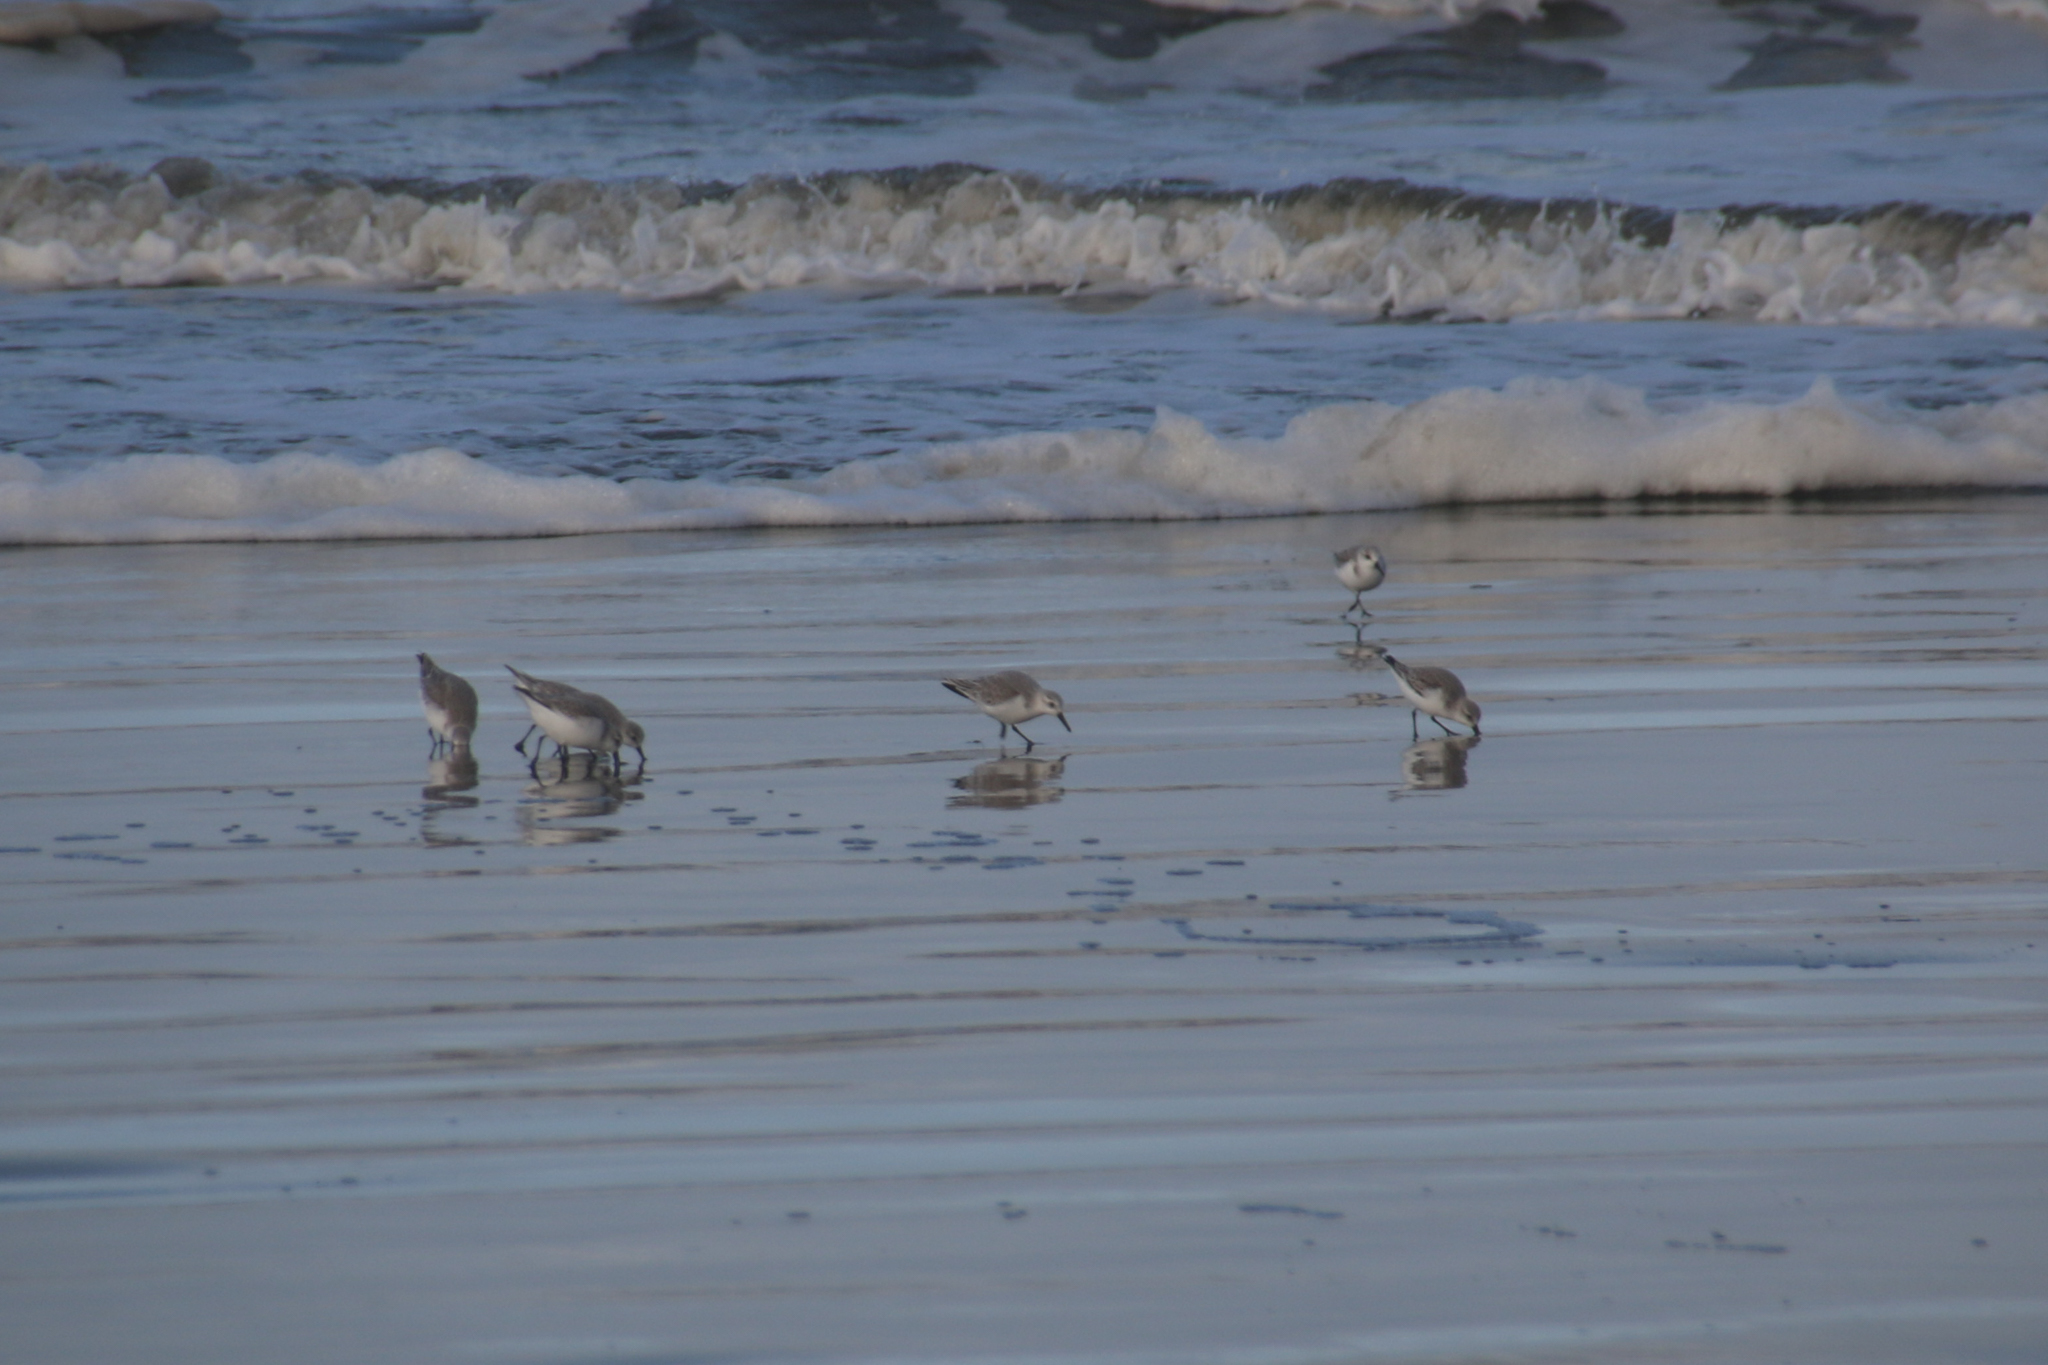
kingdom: Animalia
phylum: Chordata
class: Aves
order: Charadriiformes
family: Scolopacidae
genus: Calidris
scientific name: Calidris alba
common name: Sanderling
